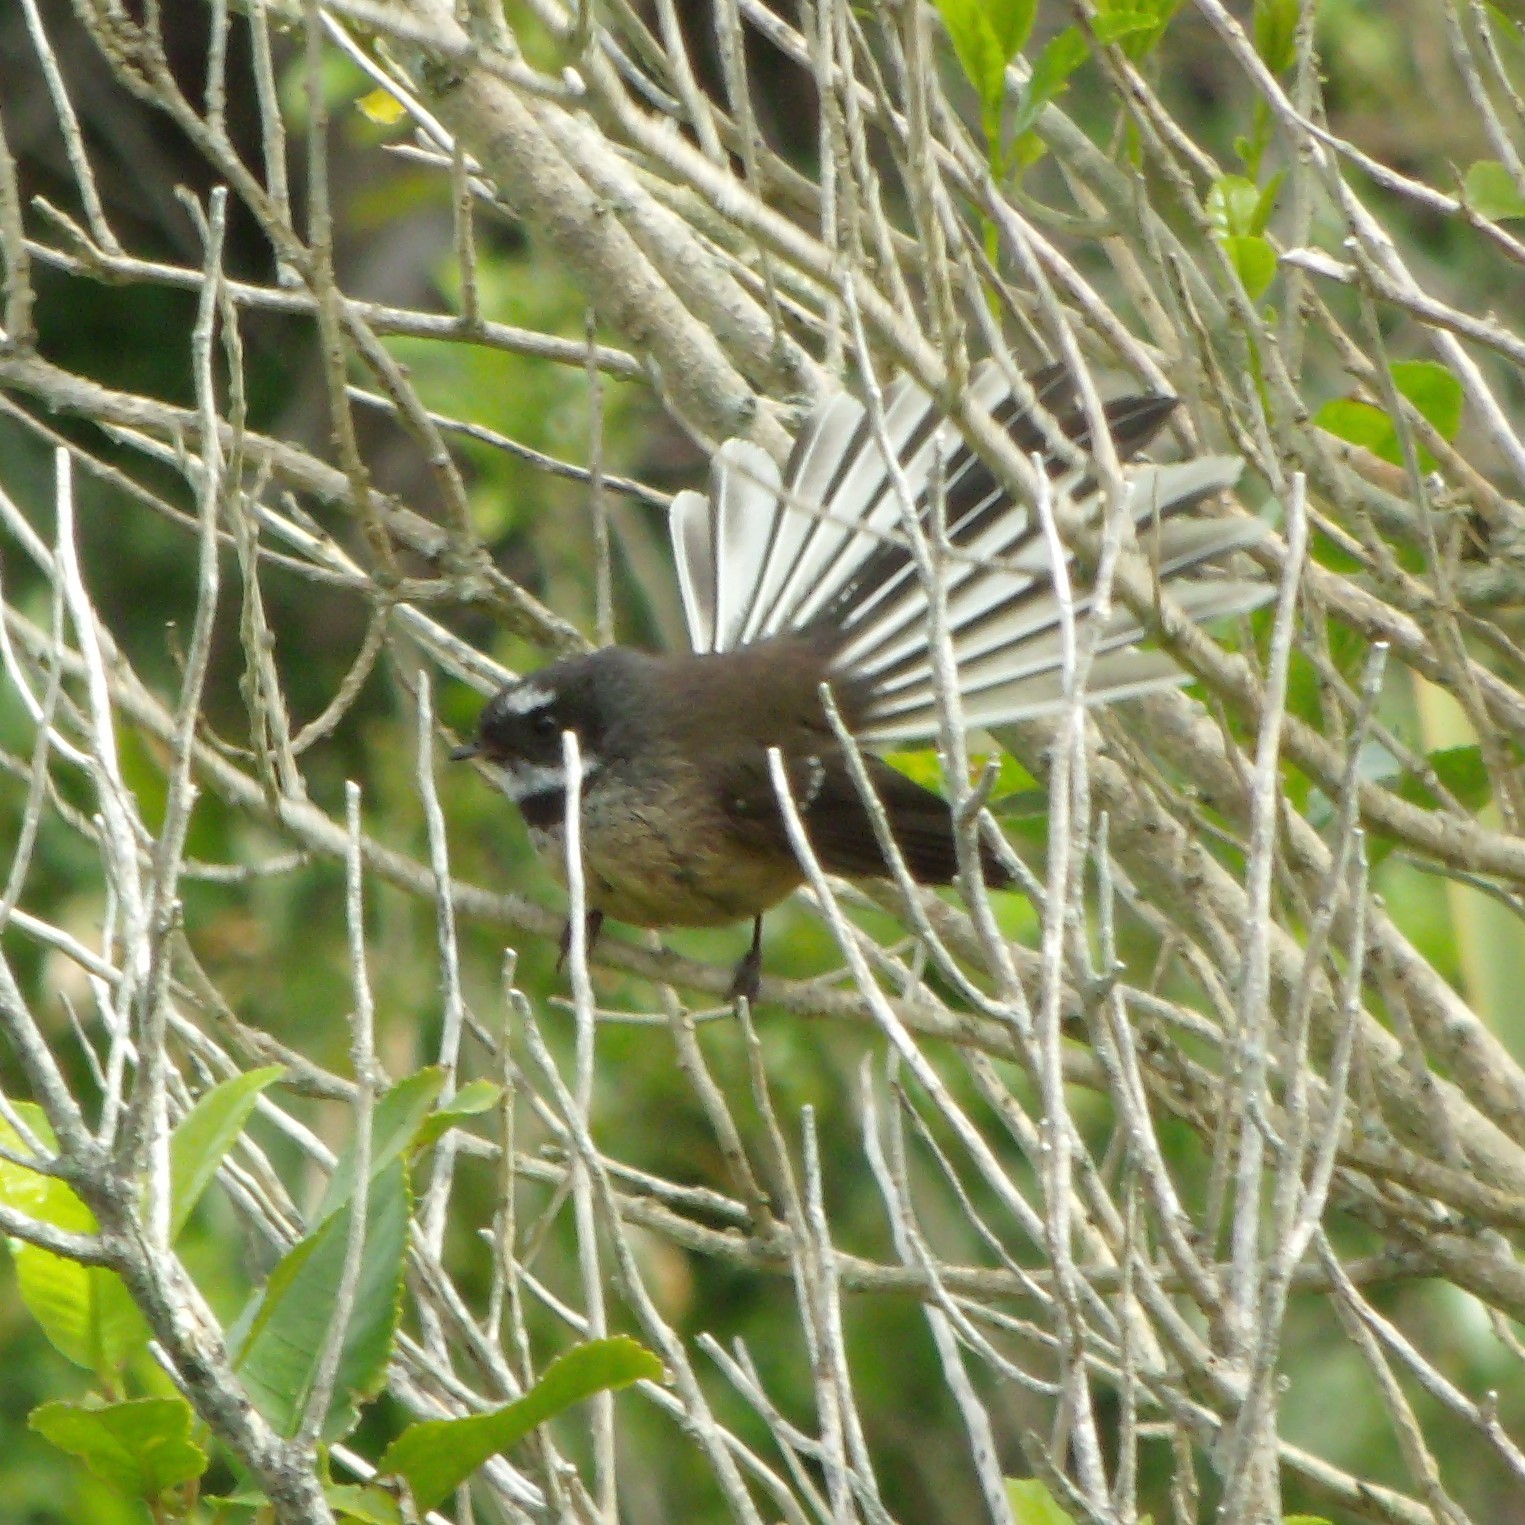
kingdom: Animalia
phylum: Chordata
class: Aves
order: Passeriformes
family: Rhipiduridae
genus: Rhipidura
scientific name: Rhipidura fuliginosa
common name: New zealand fantail
